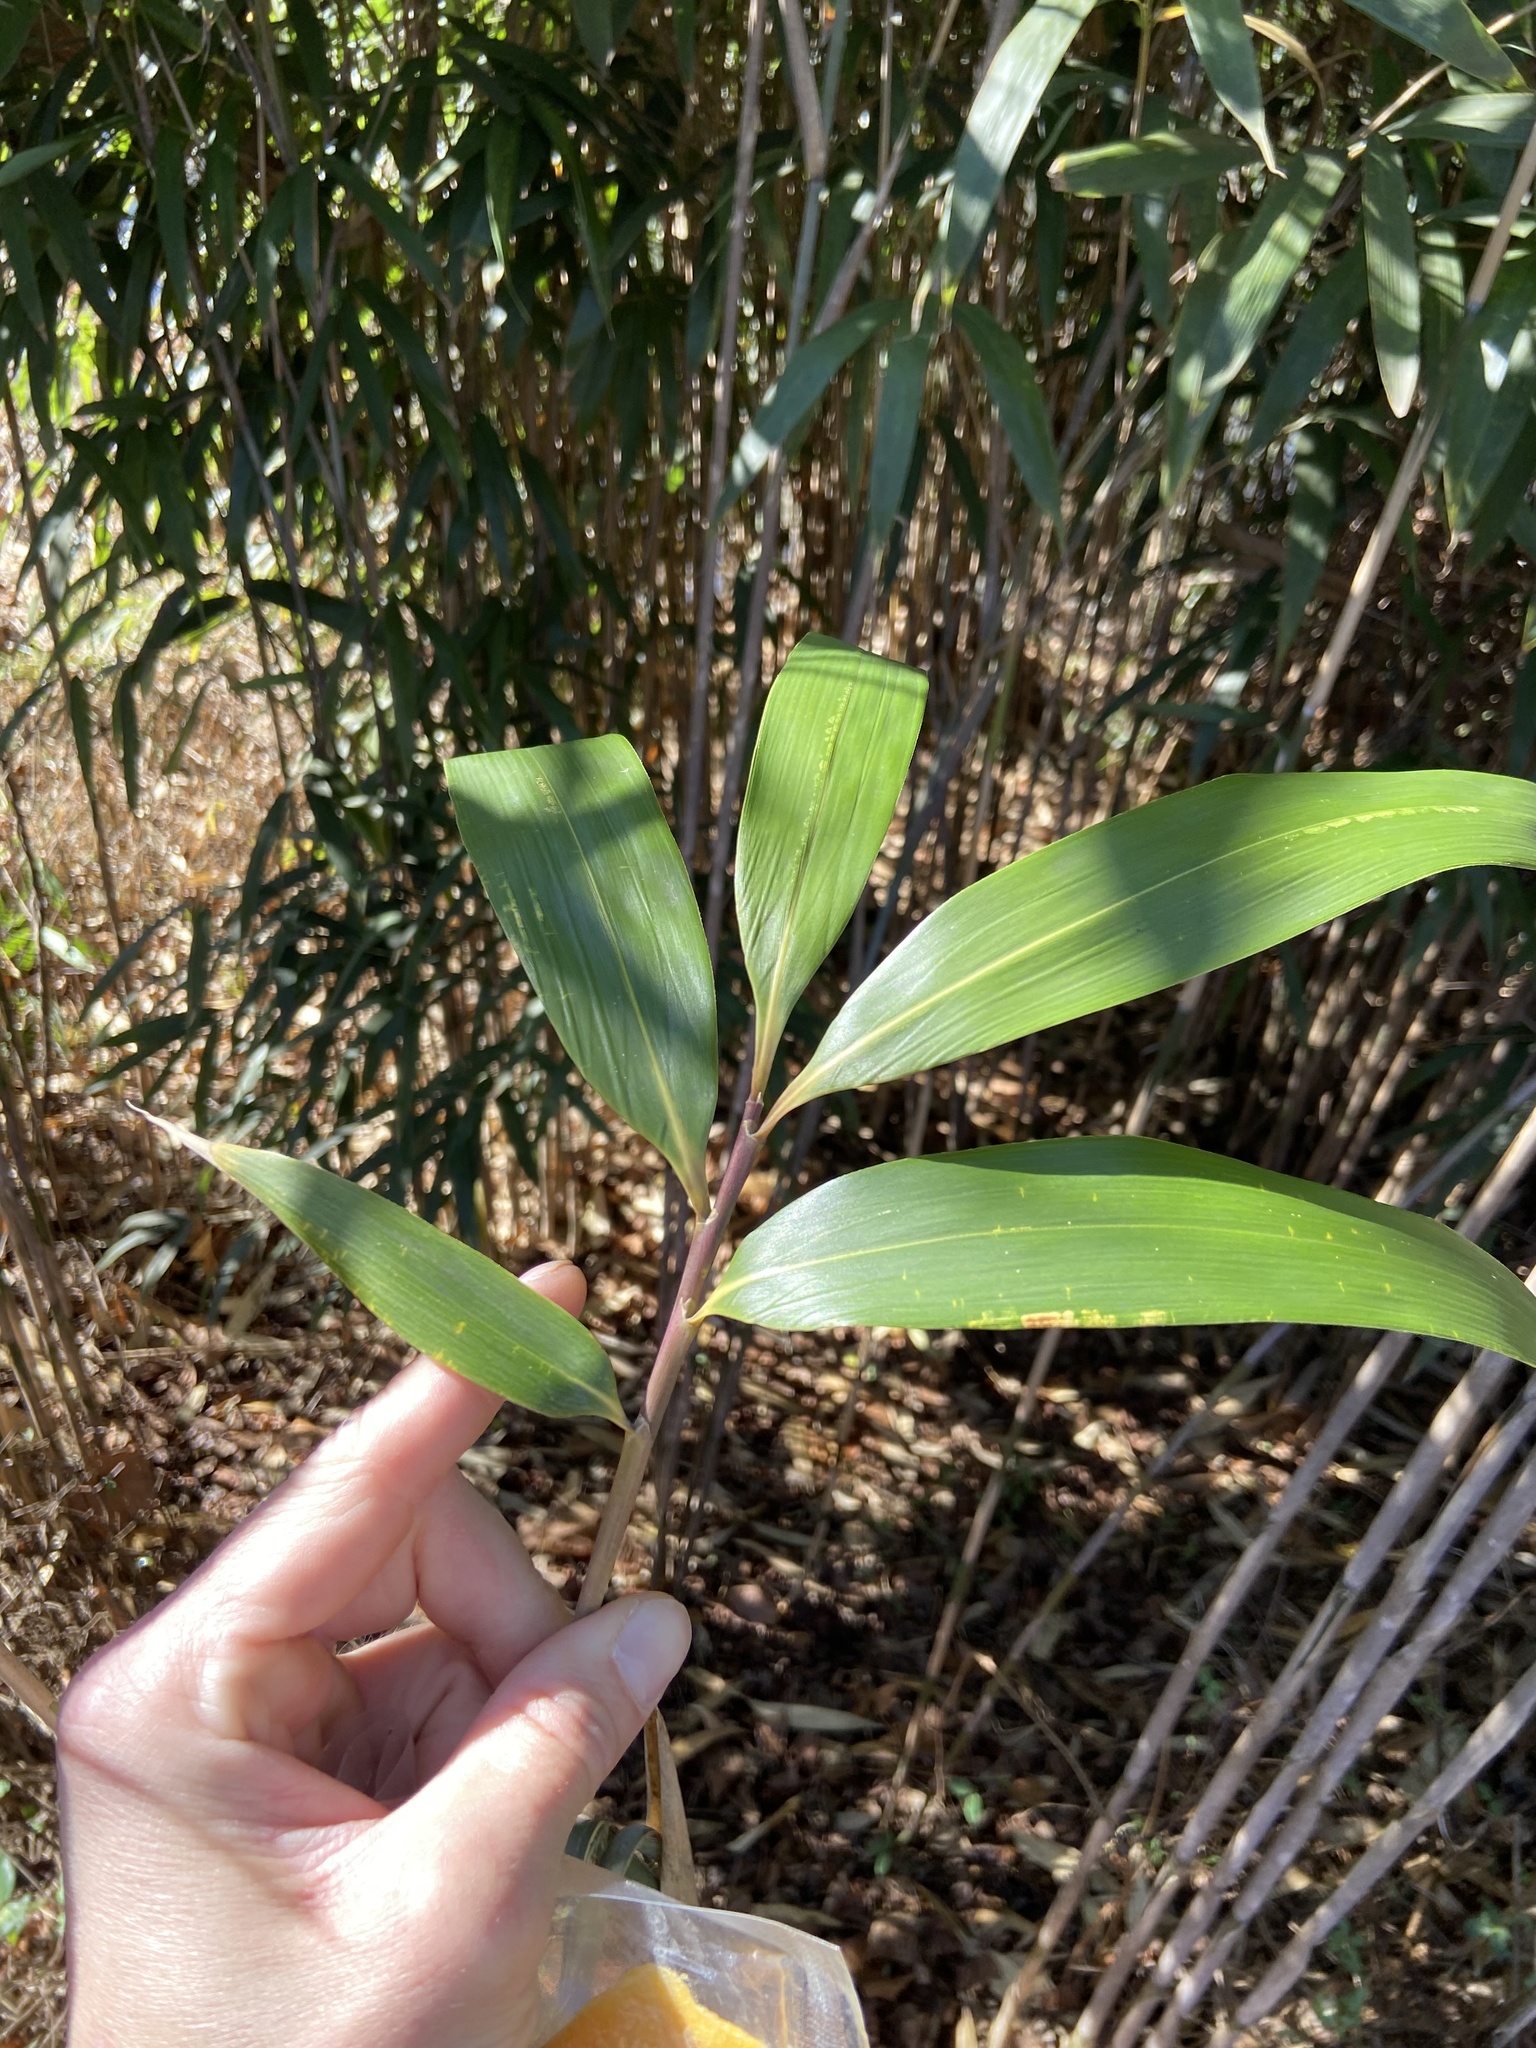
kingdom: Plantae
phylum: Tracheophyta
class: Liliopsida
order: Poales
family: Poaceae
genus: Pseudosasa
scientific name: Pseudosasa japonica
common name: Arrow bamboo
